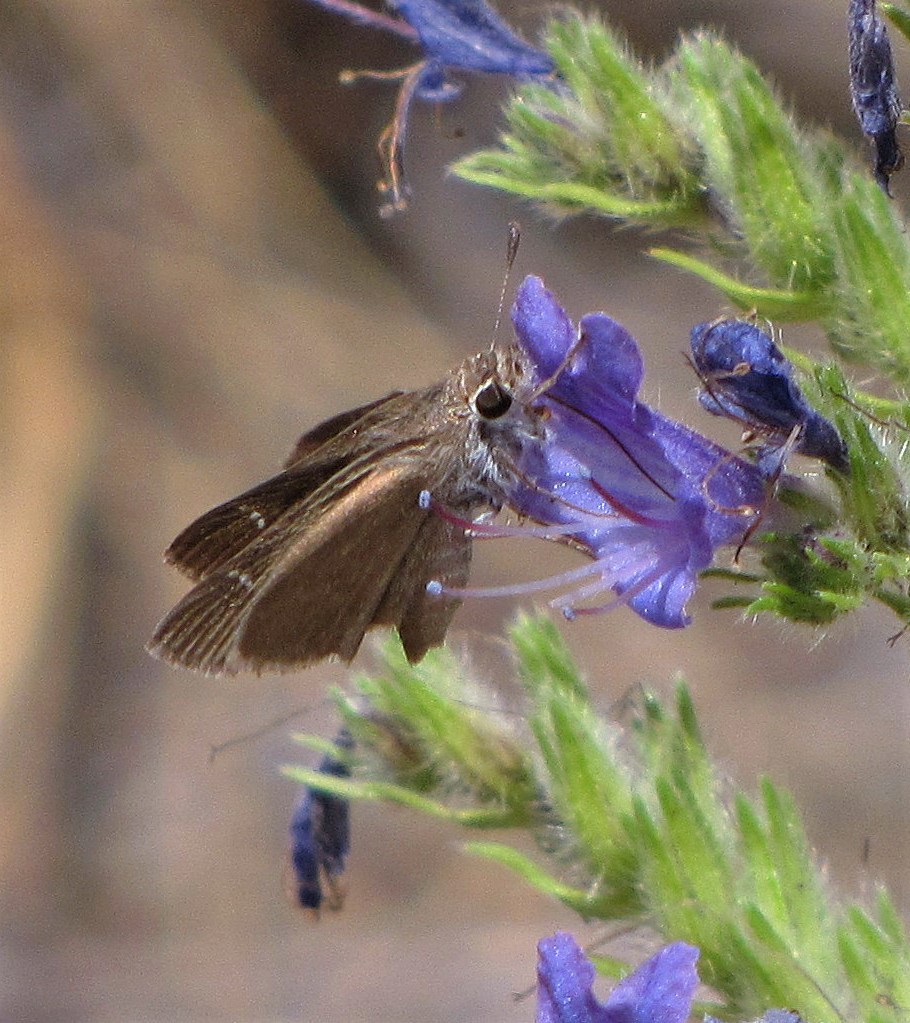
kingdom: Animalia
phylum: Arthropoda
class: Insecta
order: Lepidoptera
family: Hesperiidae
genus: Lerodea
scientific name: Lerodea eufala
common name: Eufala skipper
